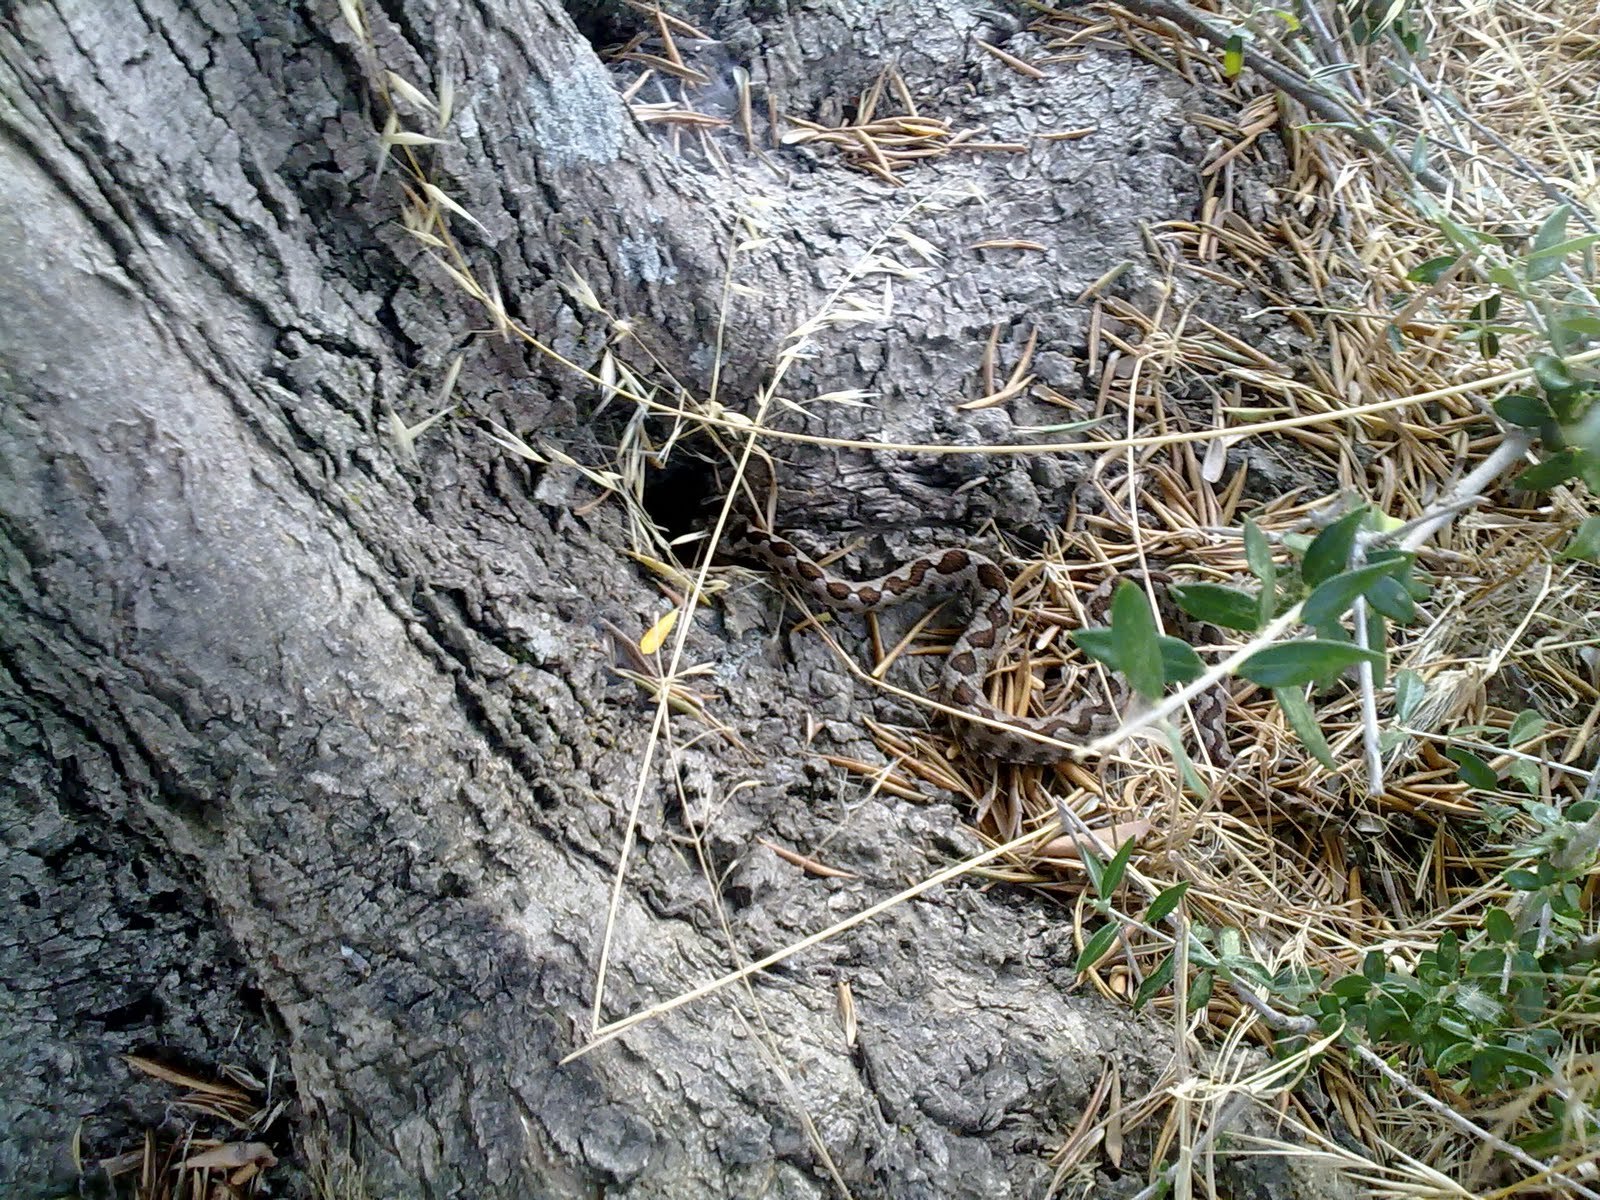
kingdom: Animalia
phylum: Chordata
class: Squamata
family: Viperidae
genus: Vipera
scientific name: Vipera ammodytes
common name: Sand viper
